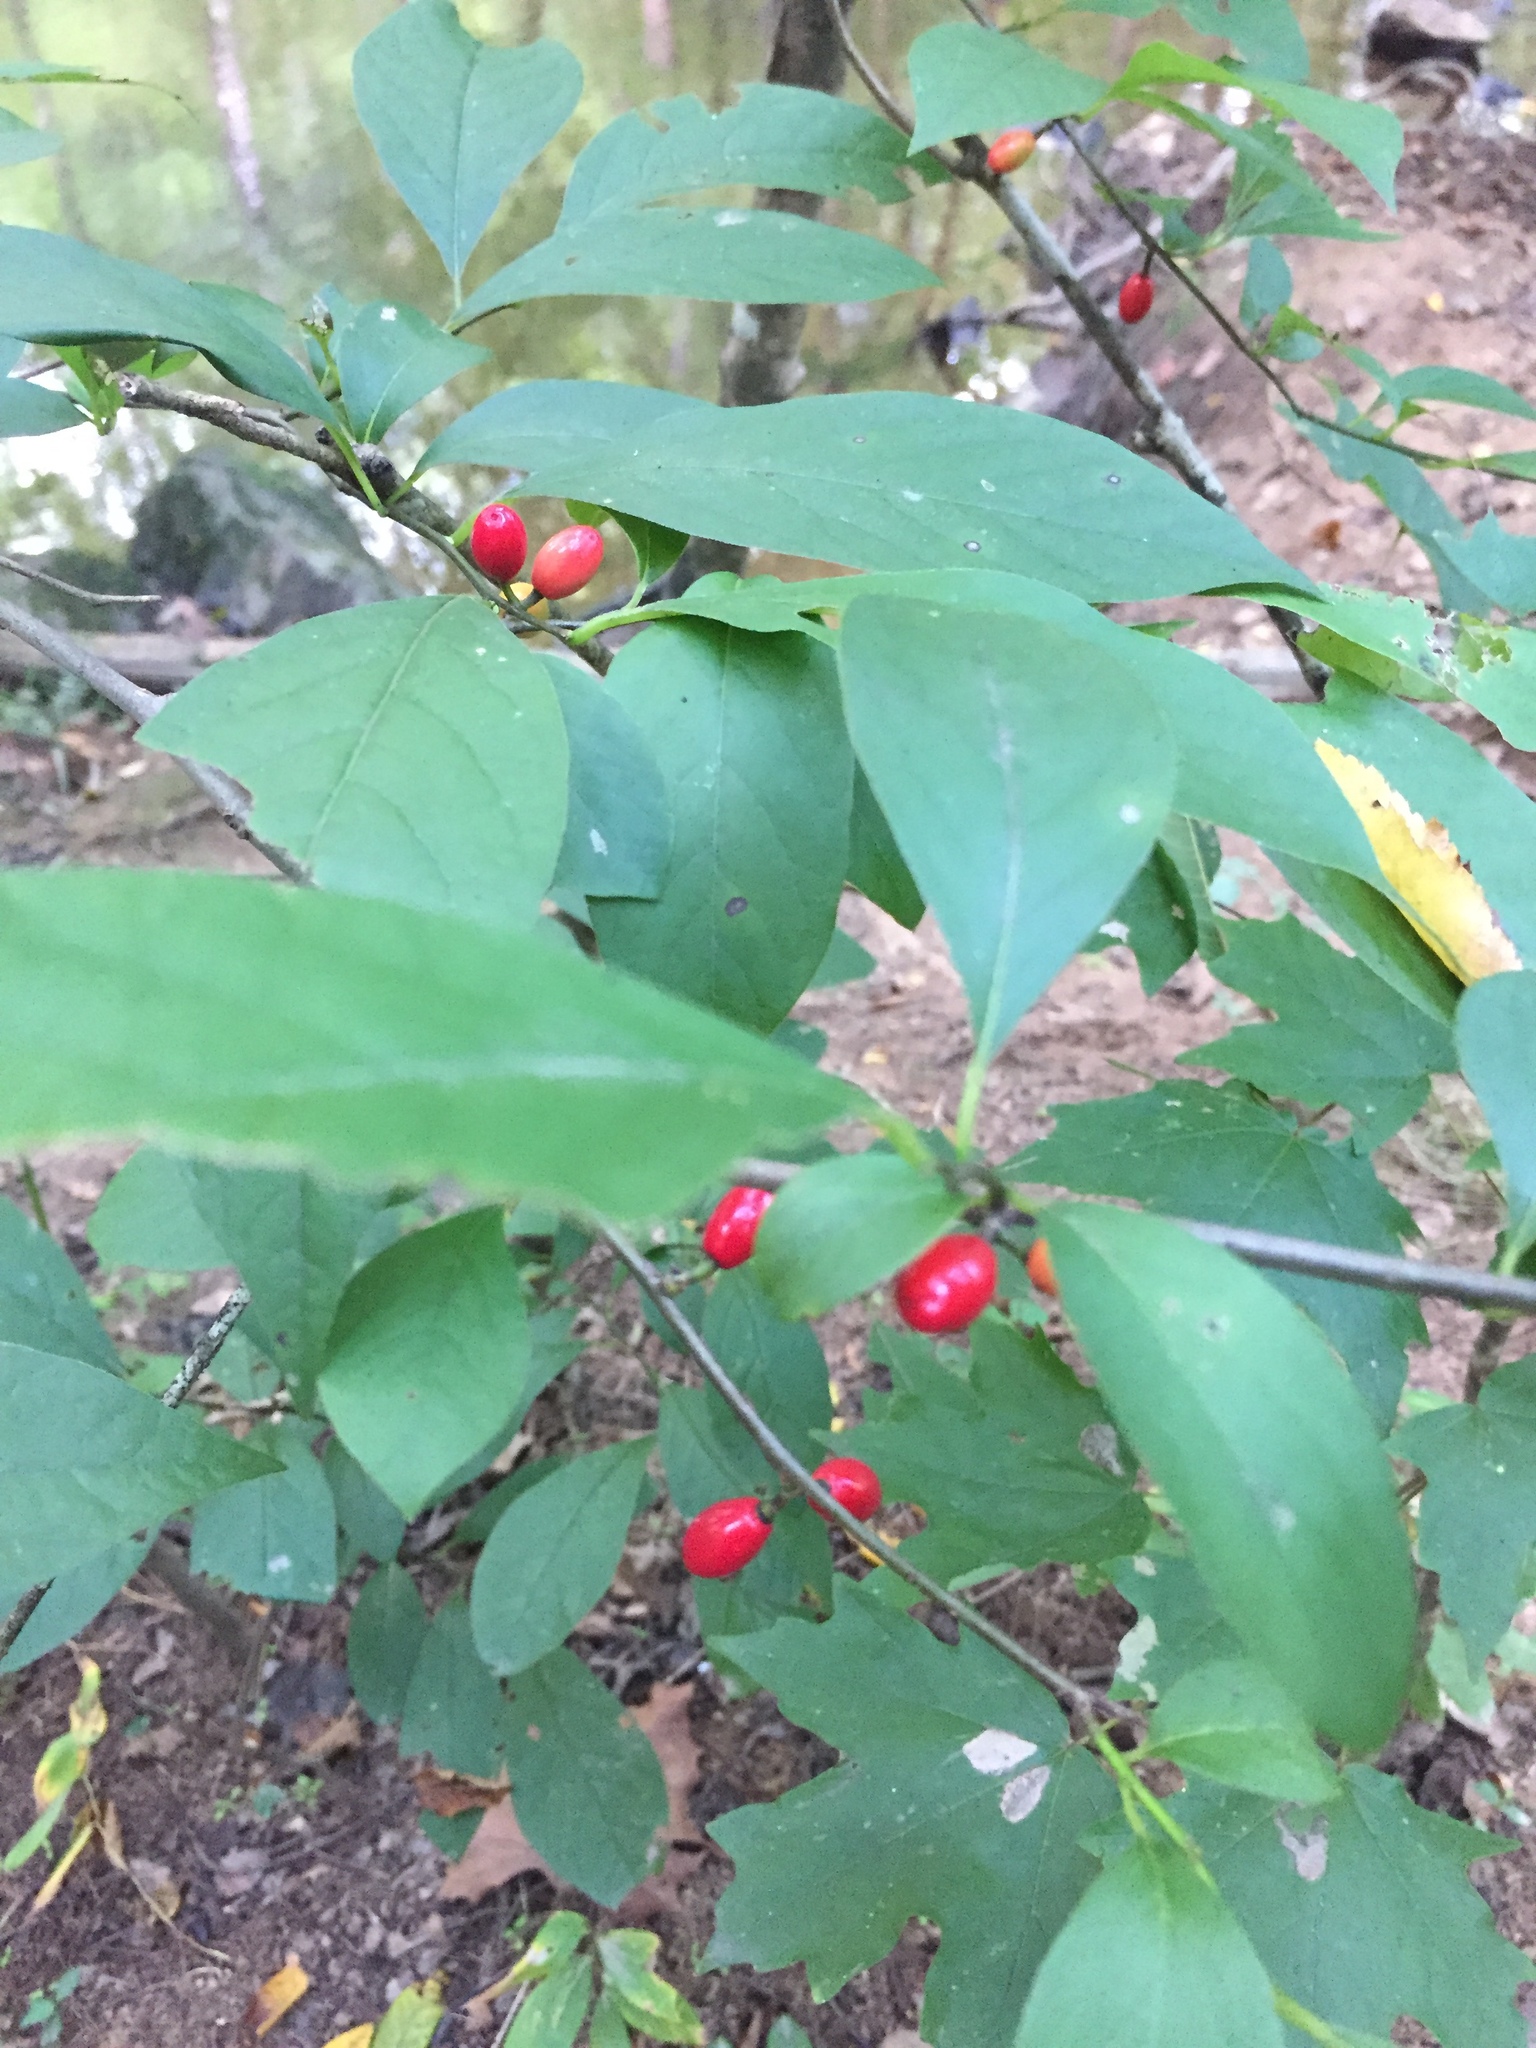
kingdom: Plantae
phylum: Tracheophyta
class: Magnoliopsida
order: Laurales
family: Lauraceae
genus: Lindera
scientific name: Lindera benzoin
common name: Spicebush
